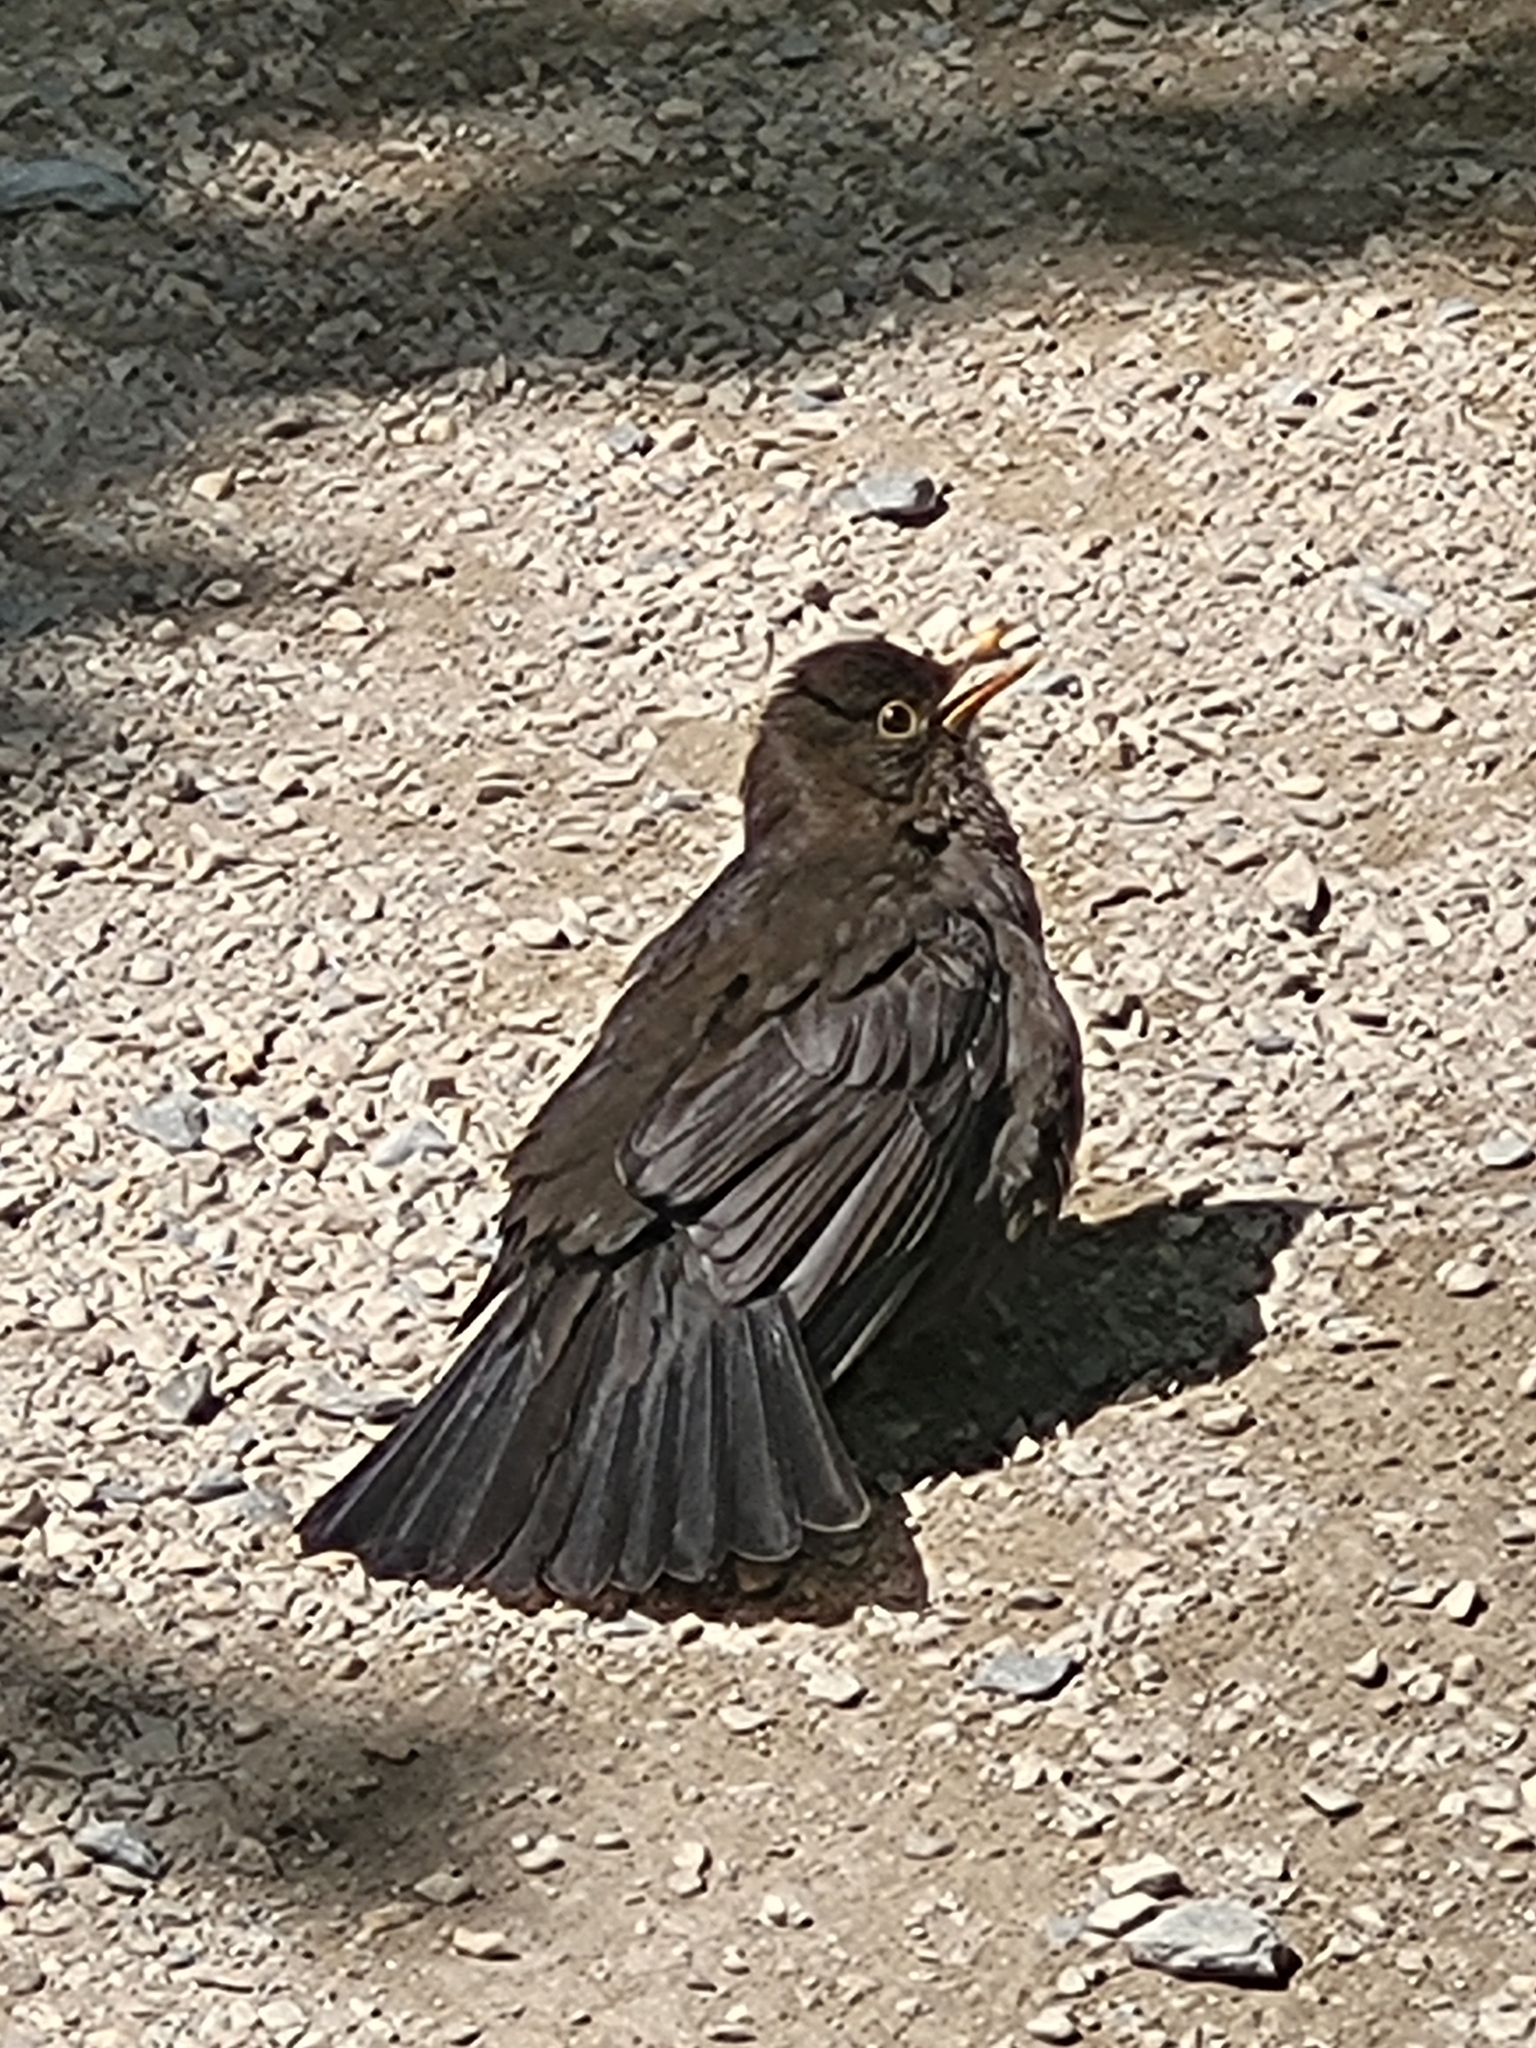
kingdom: Animalia
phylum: Chordata
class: Aves
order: Passeriformes
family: Turdidae
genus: Turdus
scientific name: Turdus merula
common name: Common blackbird
